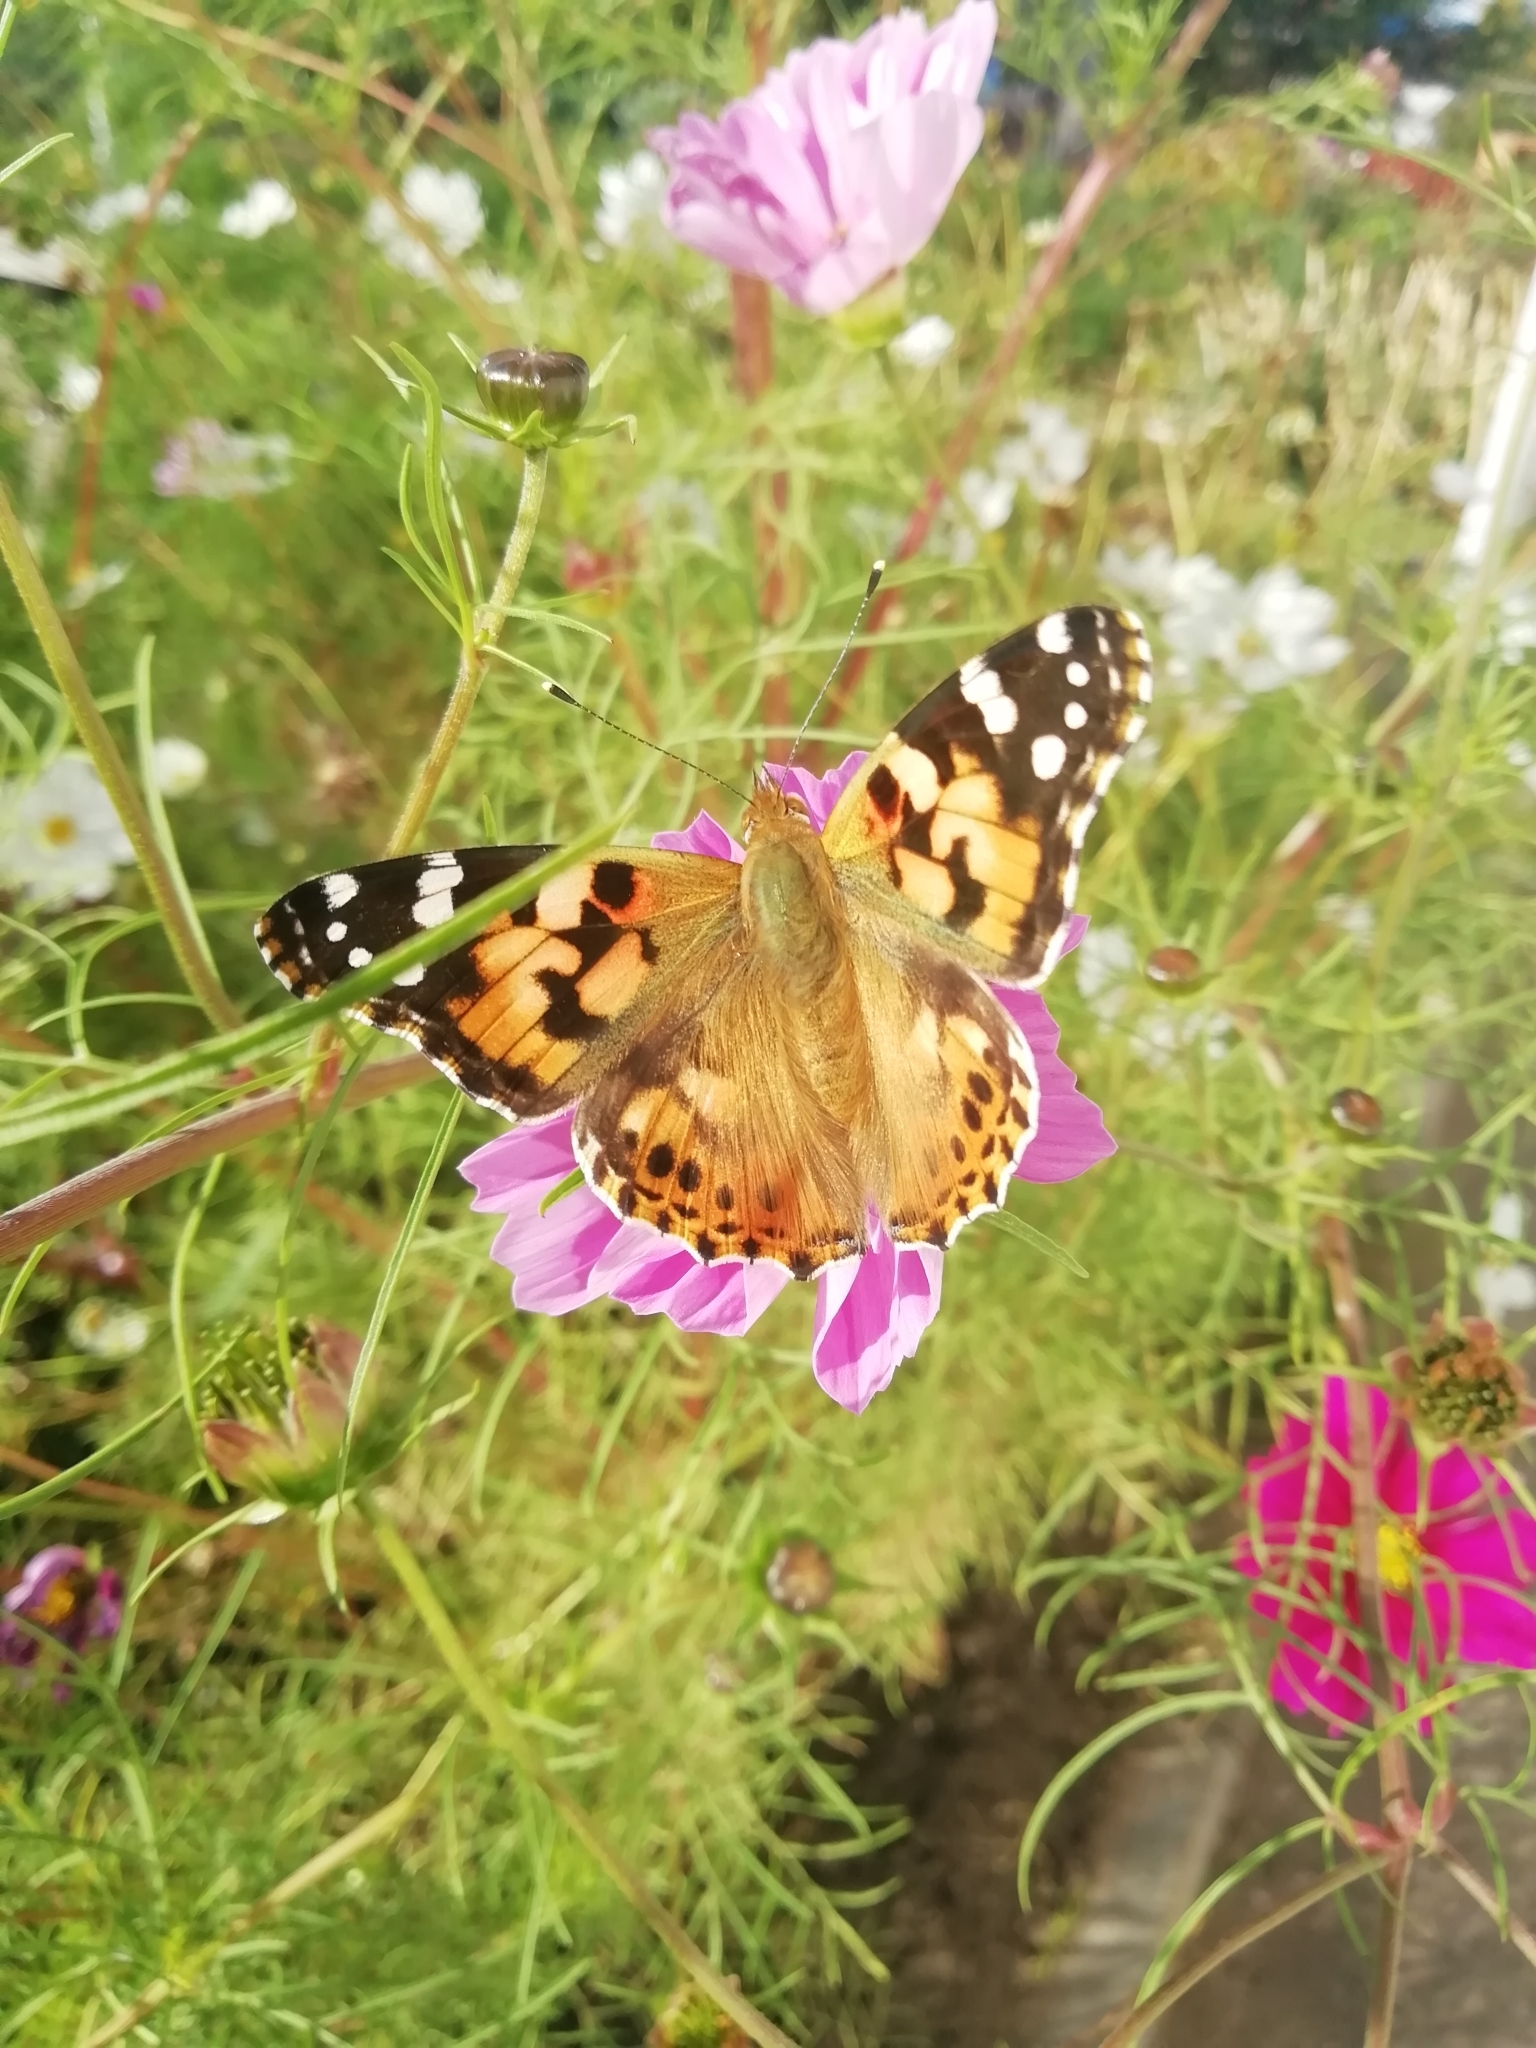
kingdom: Animalia
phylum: Arthropoda
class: Insecta
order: Lepidoptera
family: Nymphalidae
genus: Vanessa
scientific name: Vanessa cardui
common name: Painted lady
